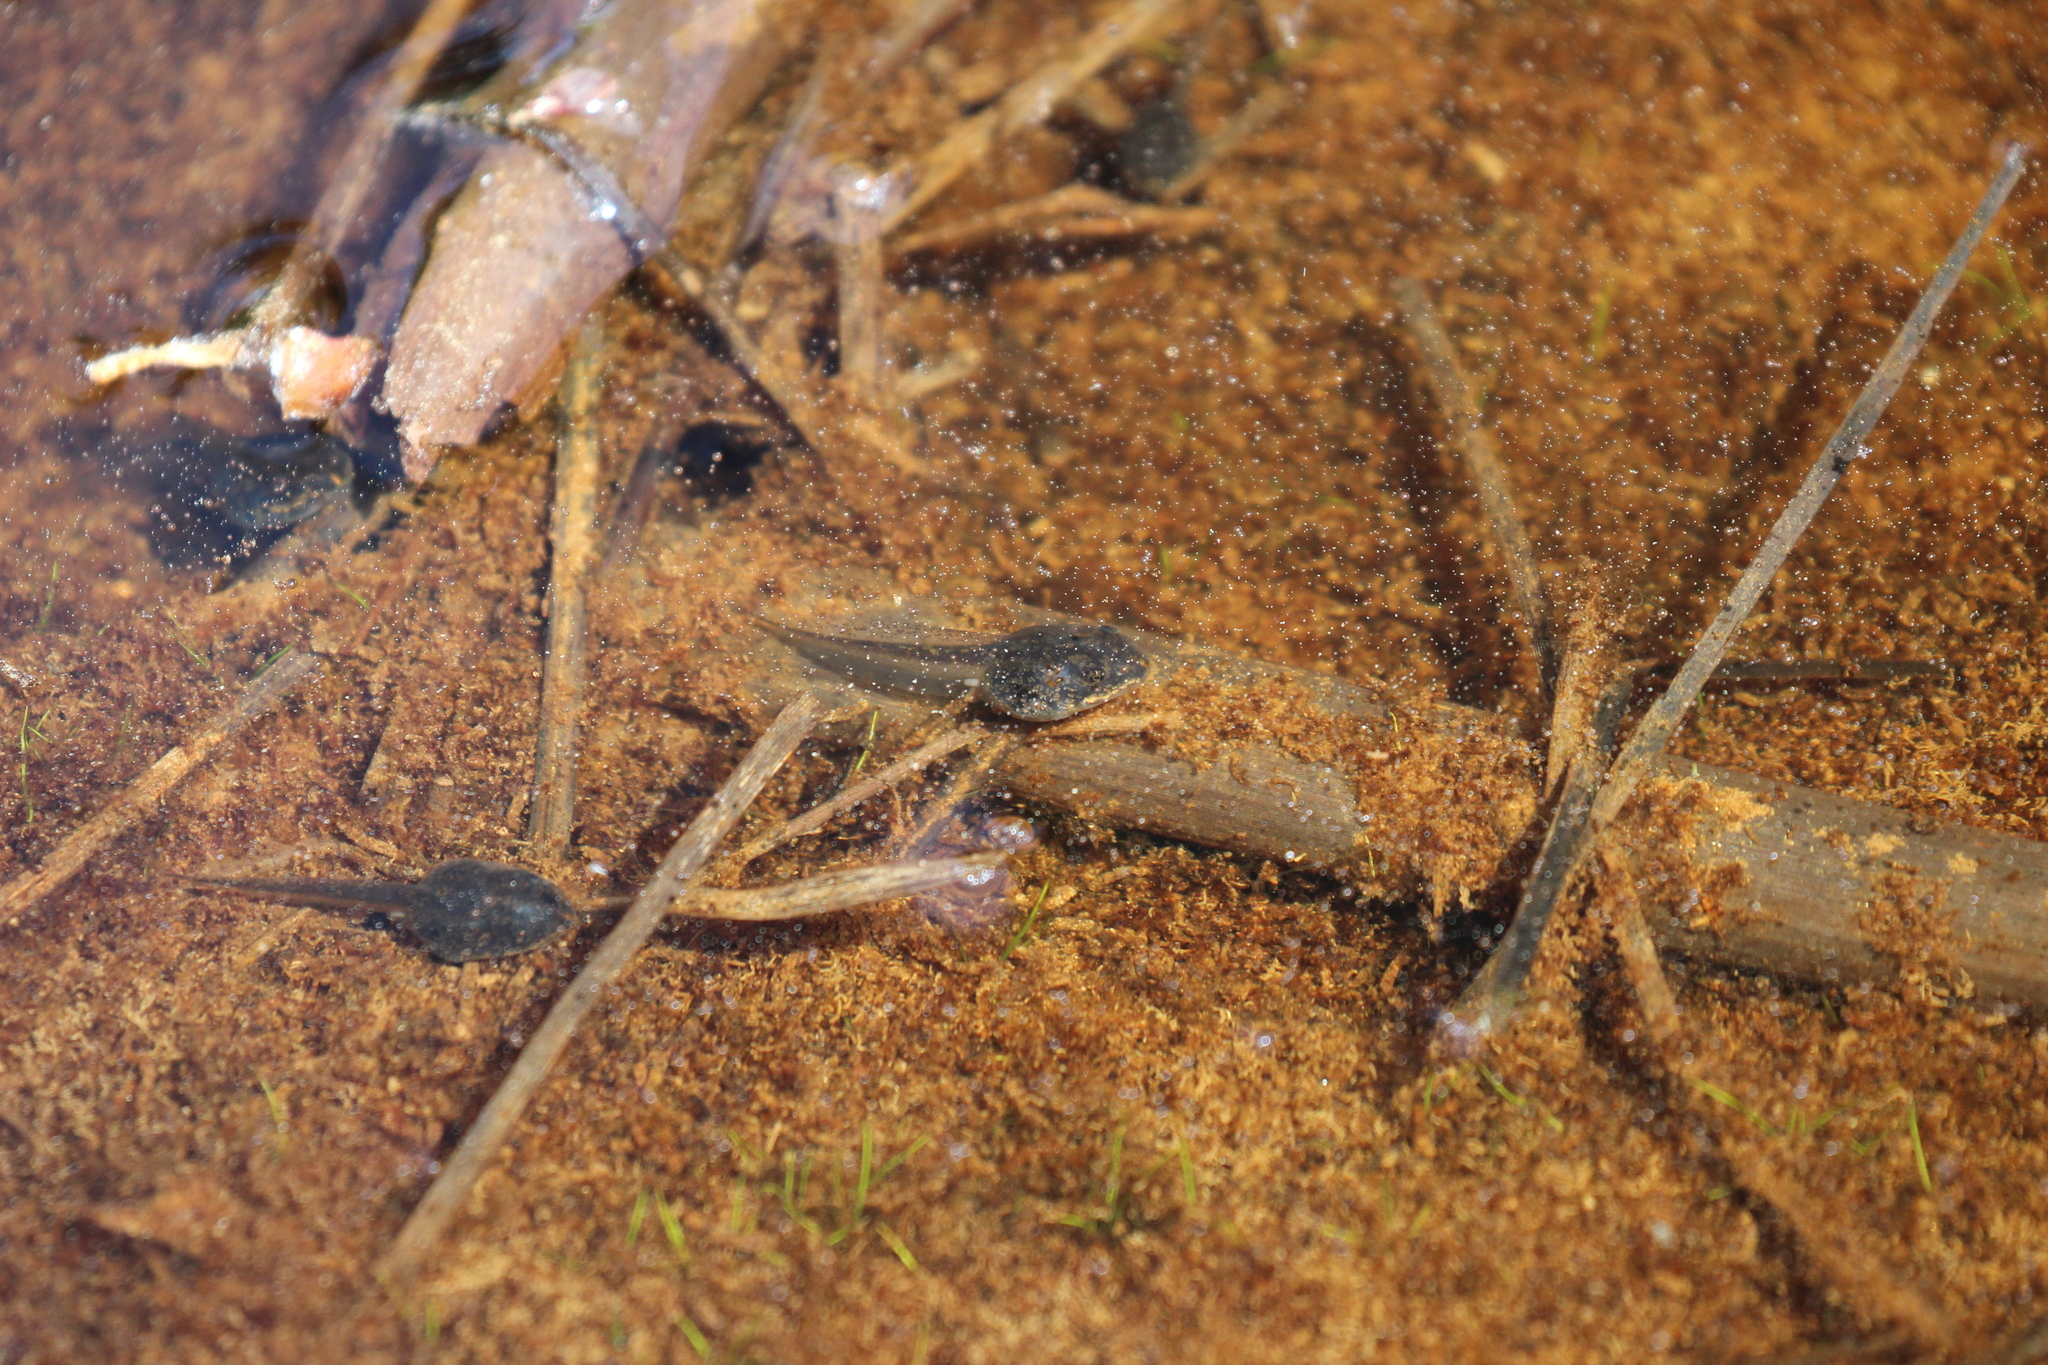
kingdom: Animalia
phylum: Chordata
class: Amphibia
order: Anura
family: Ranidae
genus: Lithobates
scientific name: Lithobates sylvaticus
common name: Wood frog
